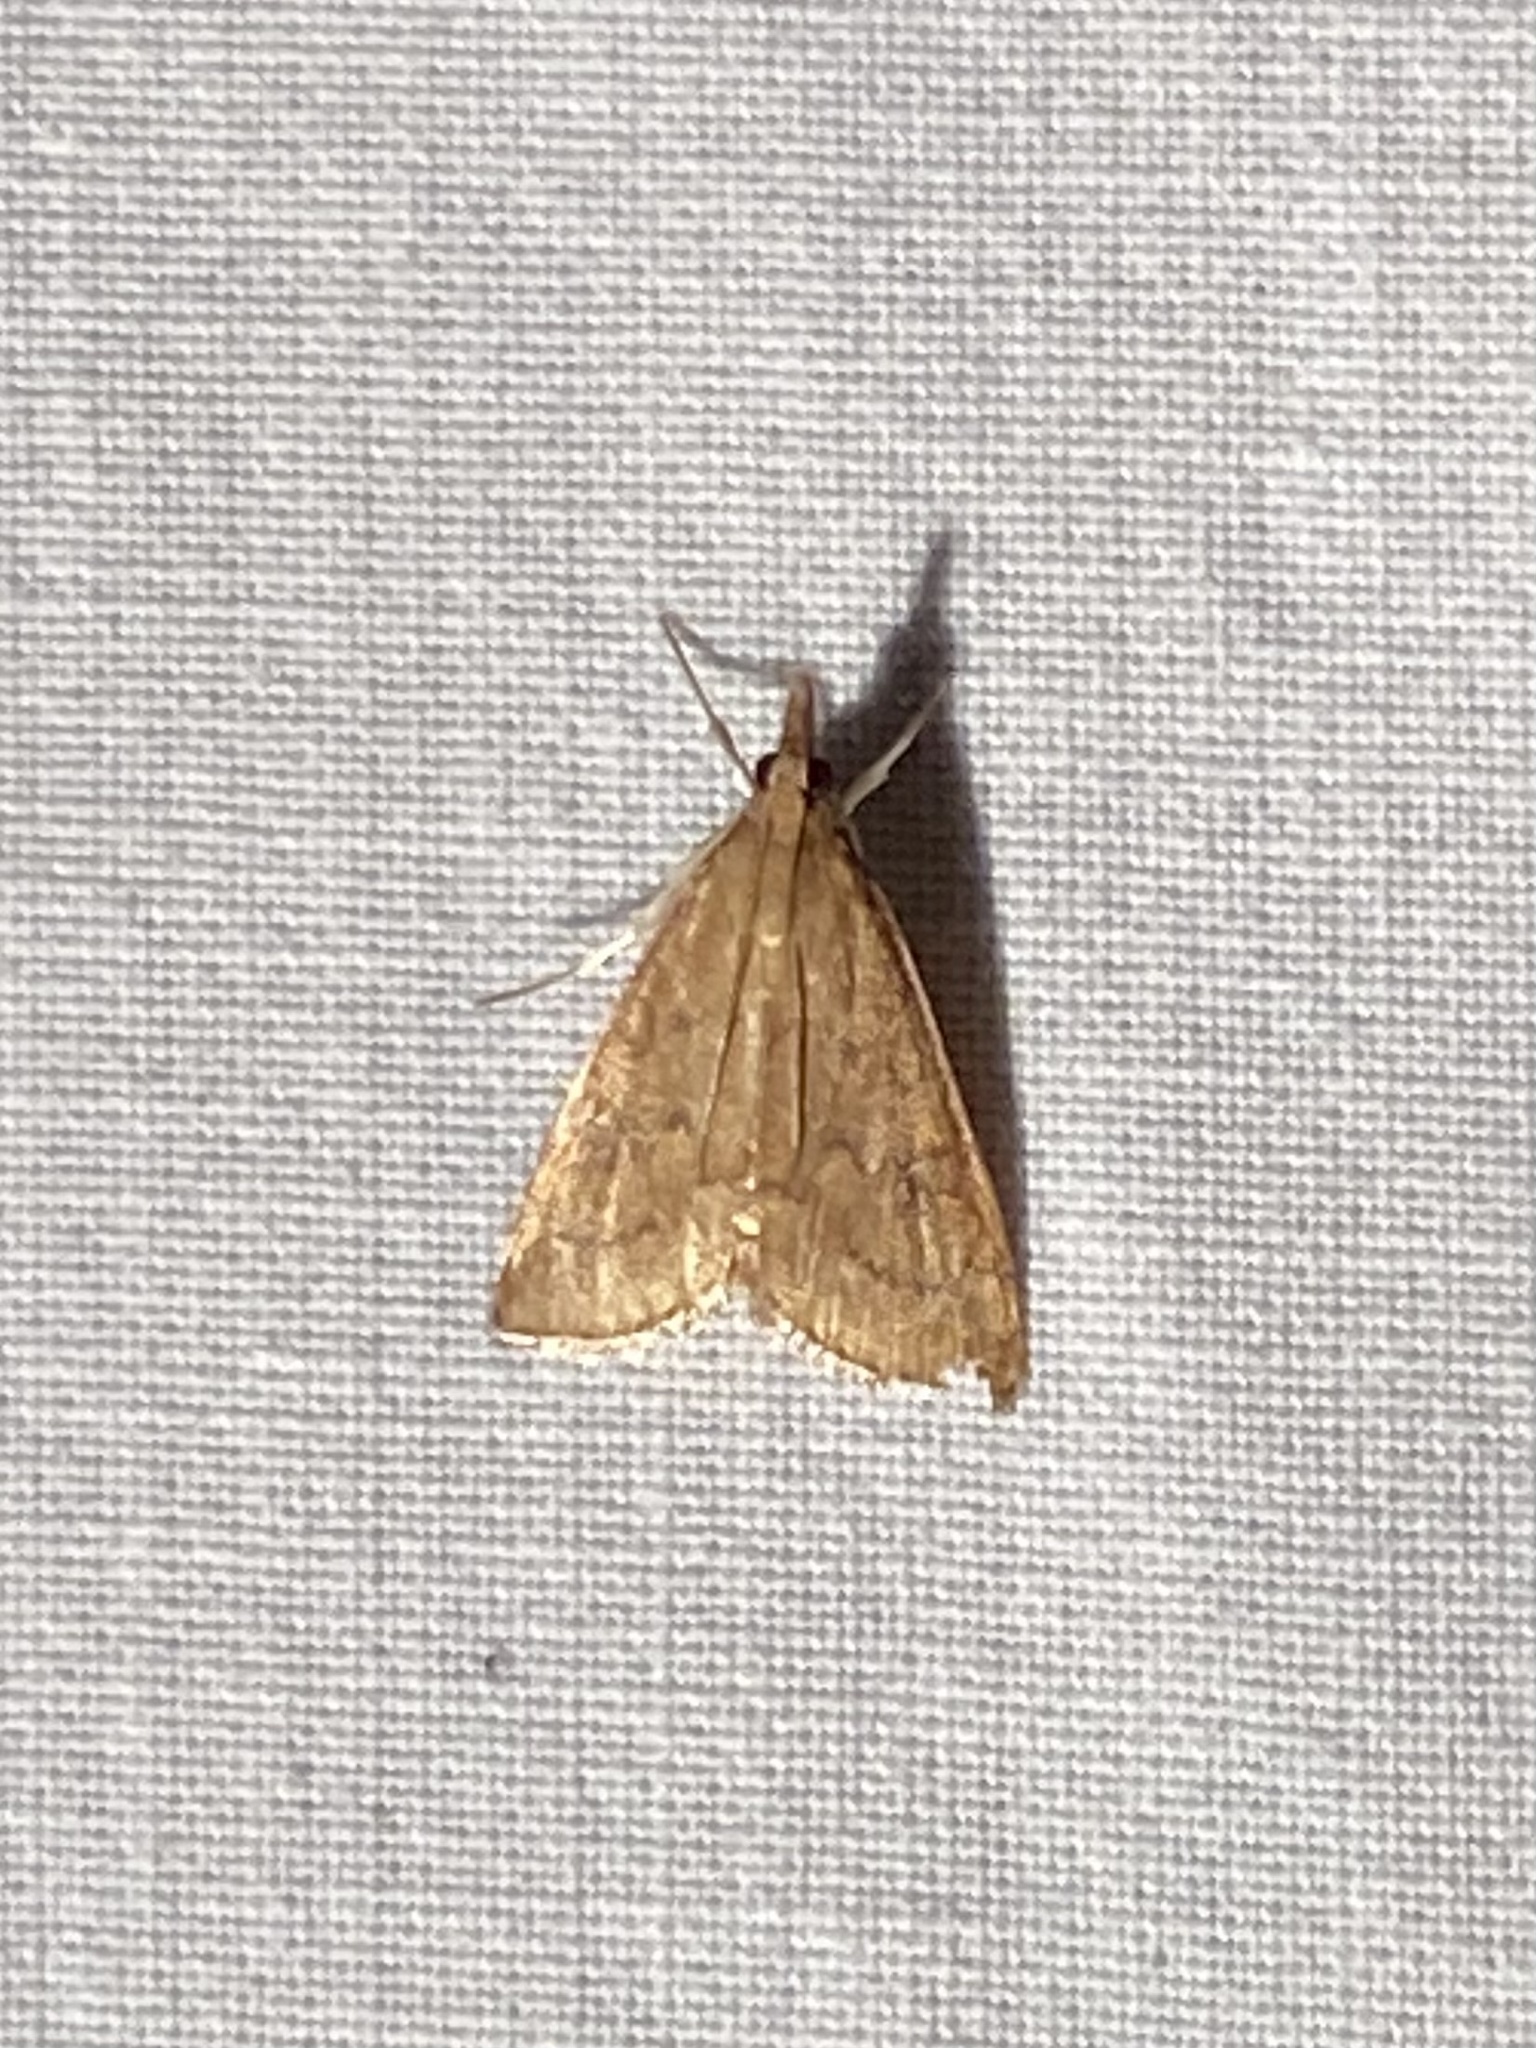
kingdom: Animalia
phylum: Arthropoda
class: Insecta
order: Lepidoptera
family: Crambidae
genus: Udea
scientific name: Udea rubigalis
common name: Celery leaftier moth
